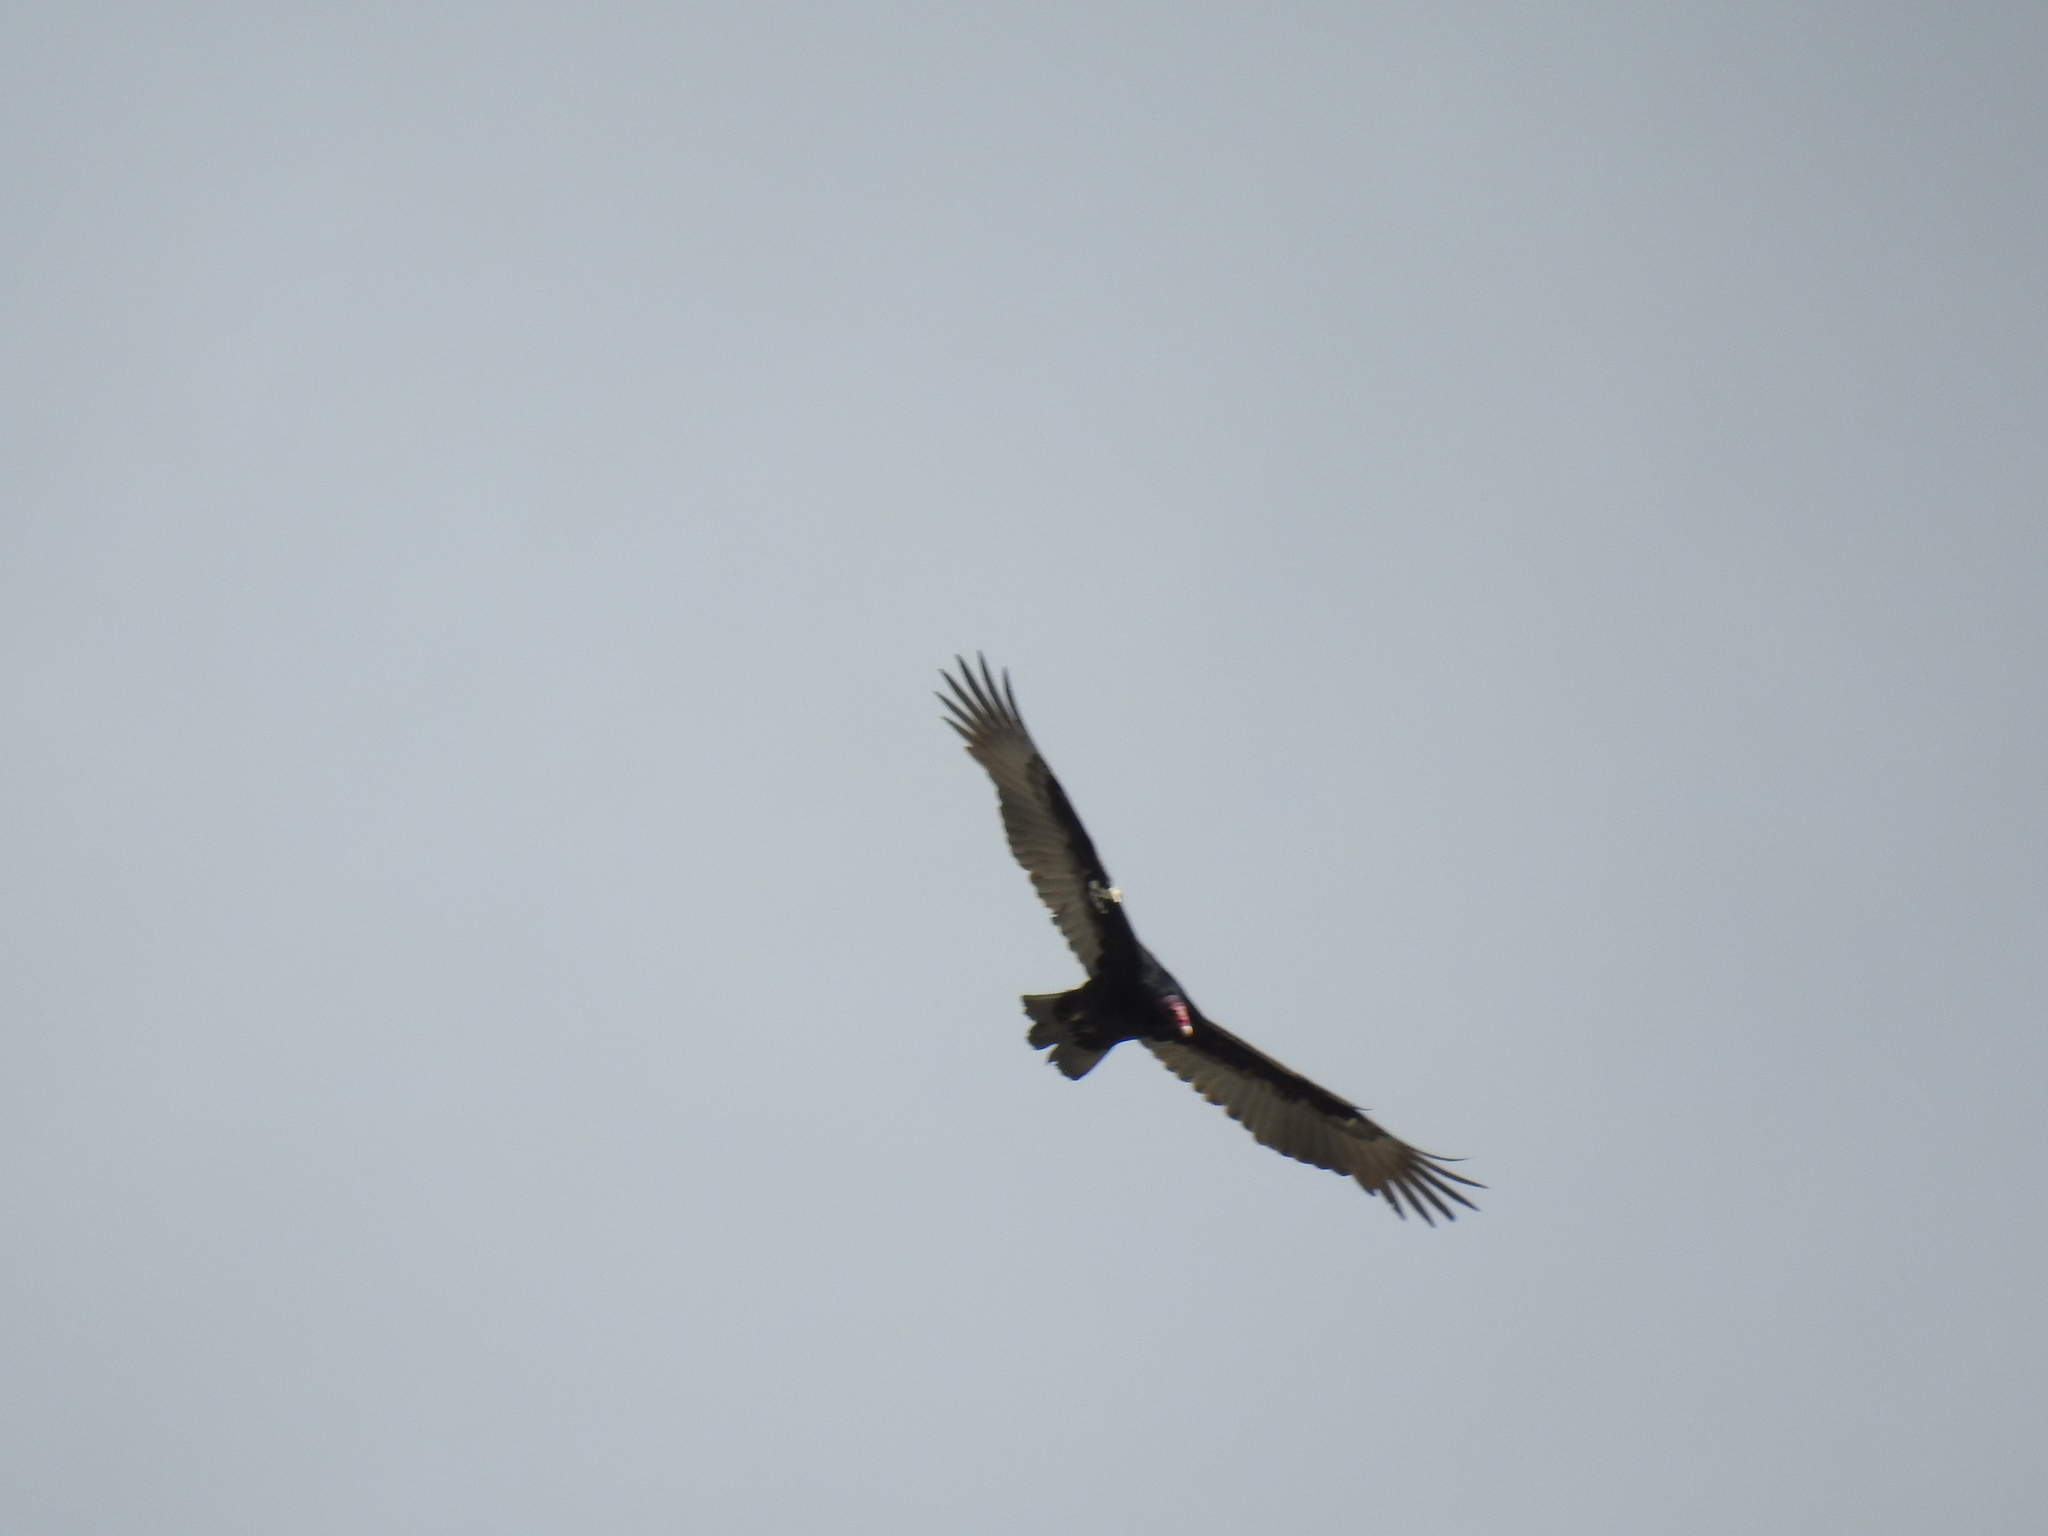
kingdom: Animalia
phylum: Chordata
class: Aves
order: Accipitriformes
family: Cathartidae
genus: Cathartes
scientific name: Cathartes aura
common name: Turkey vulture
